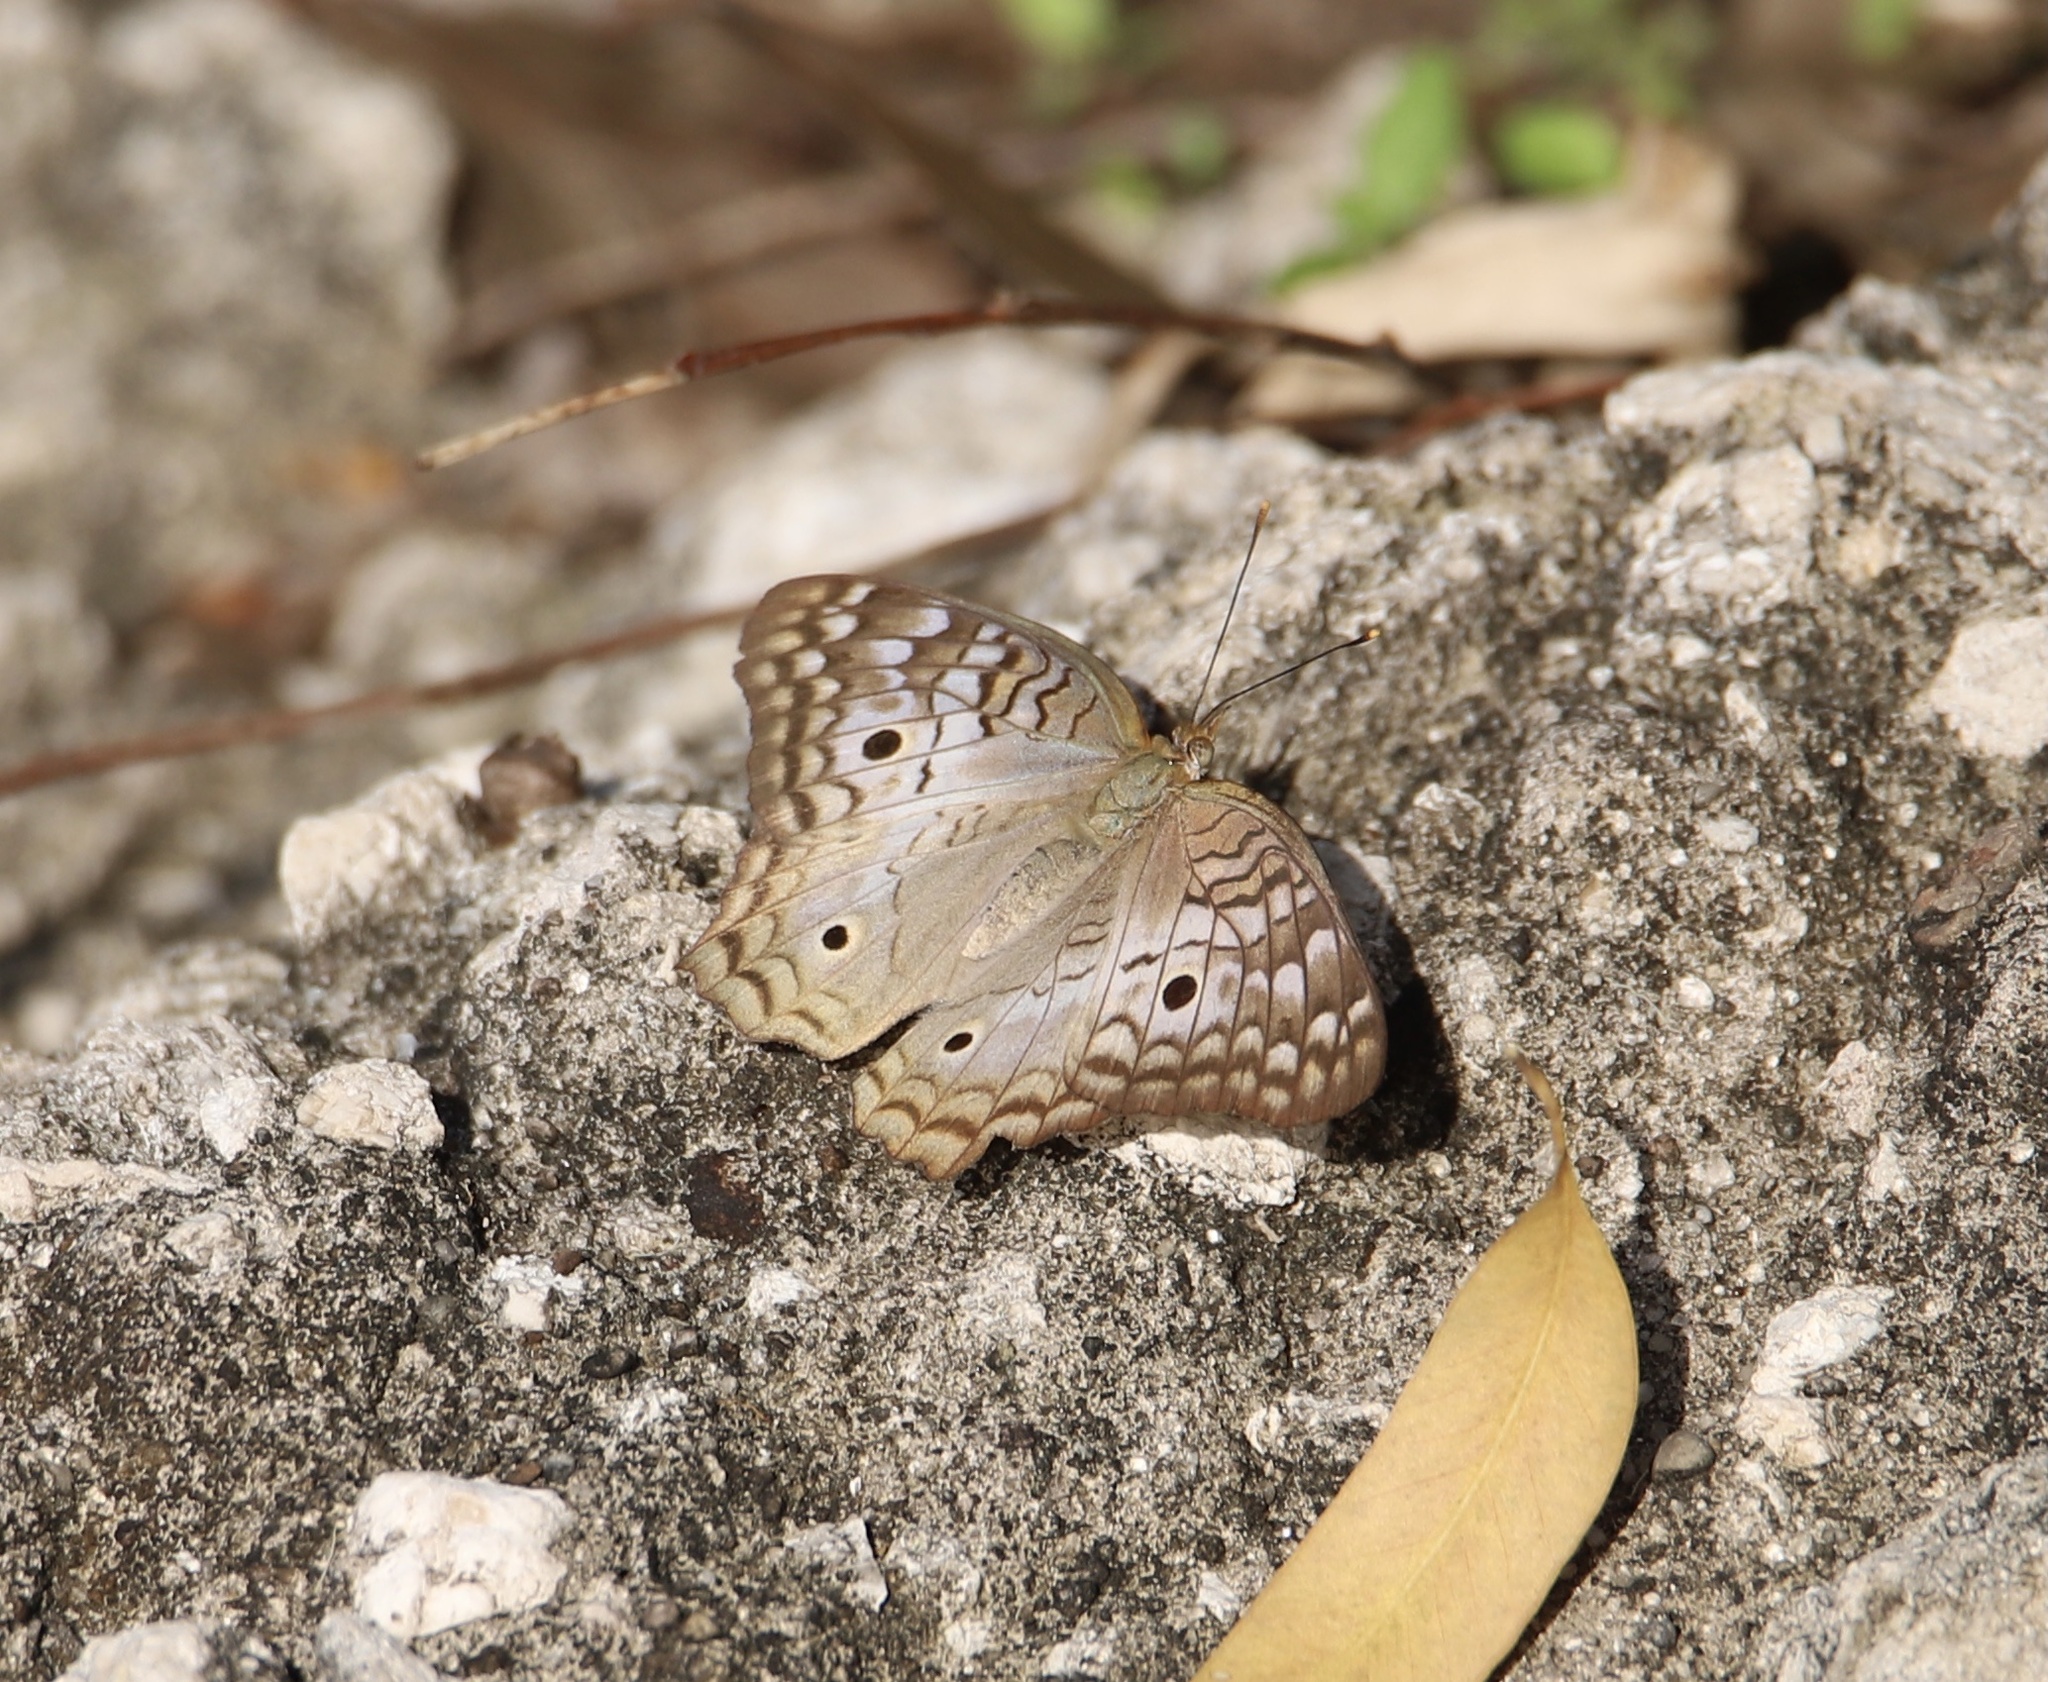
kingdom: Animalia
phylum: Arthropoda
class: Insecta
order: Lepidoptera
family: Nymphalidae
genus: Anartia
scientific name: Anartia jatrophae
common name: White peacock
